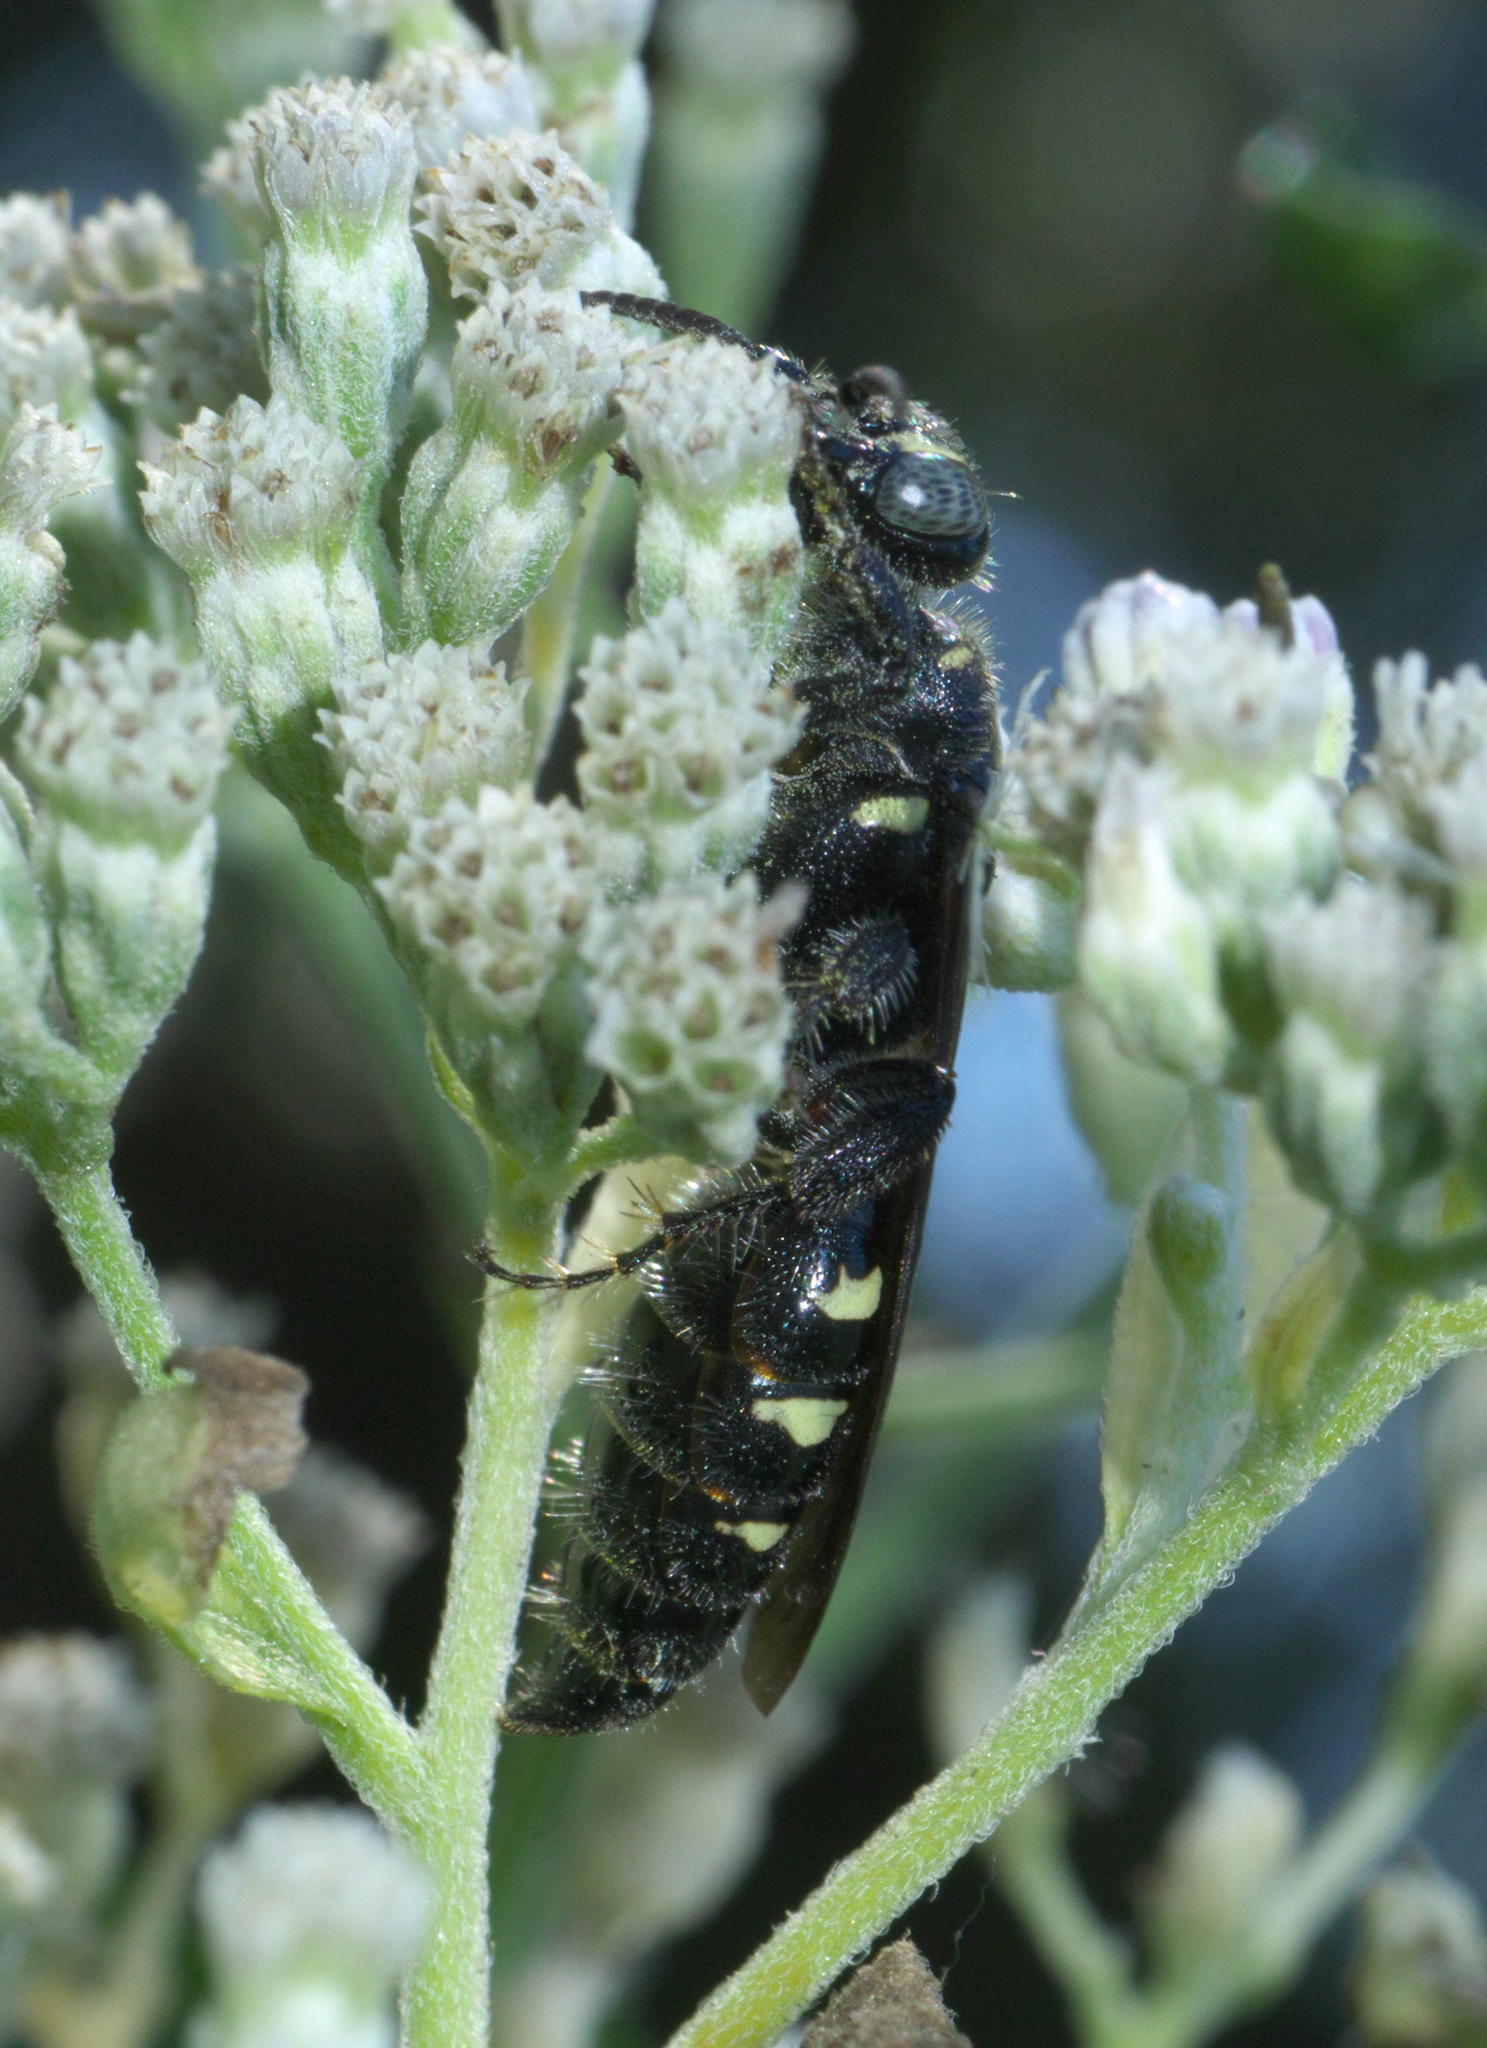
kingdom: Animalia
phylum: Arthropoda
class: Insecta
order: Hymenoptera
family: Tiphiidae
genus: Myzinum
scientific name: Myzinum obscurum
